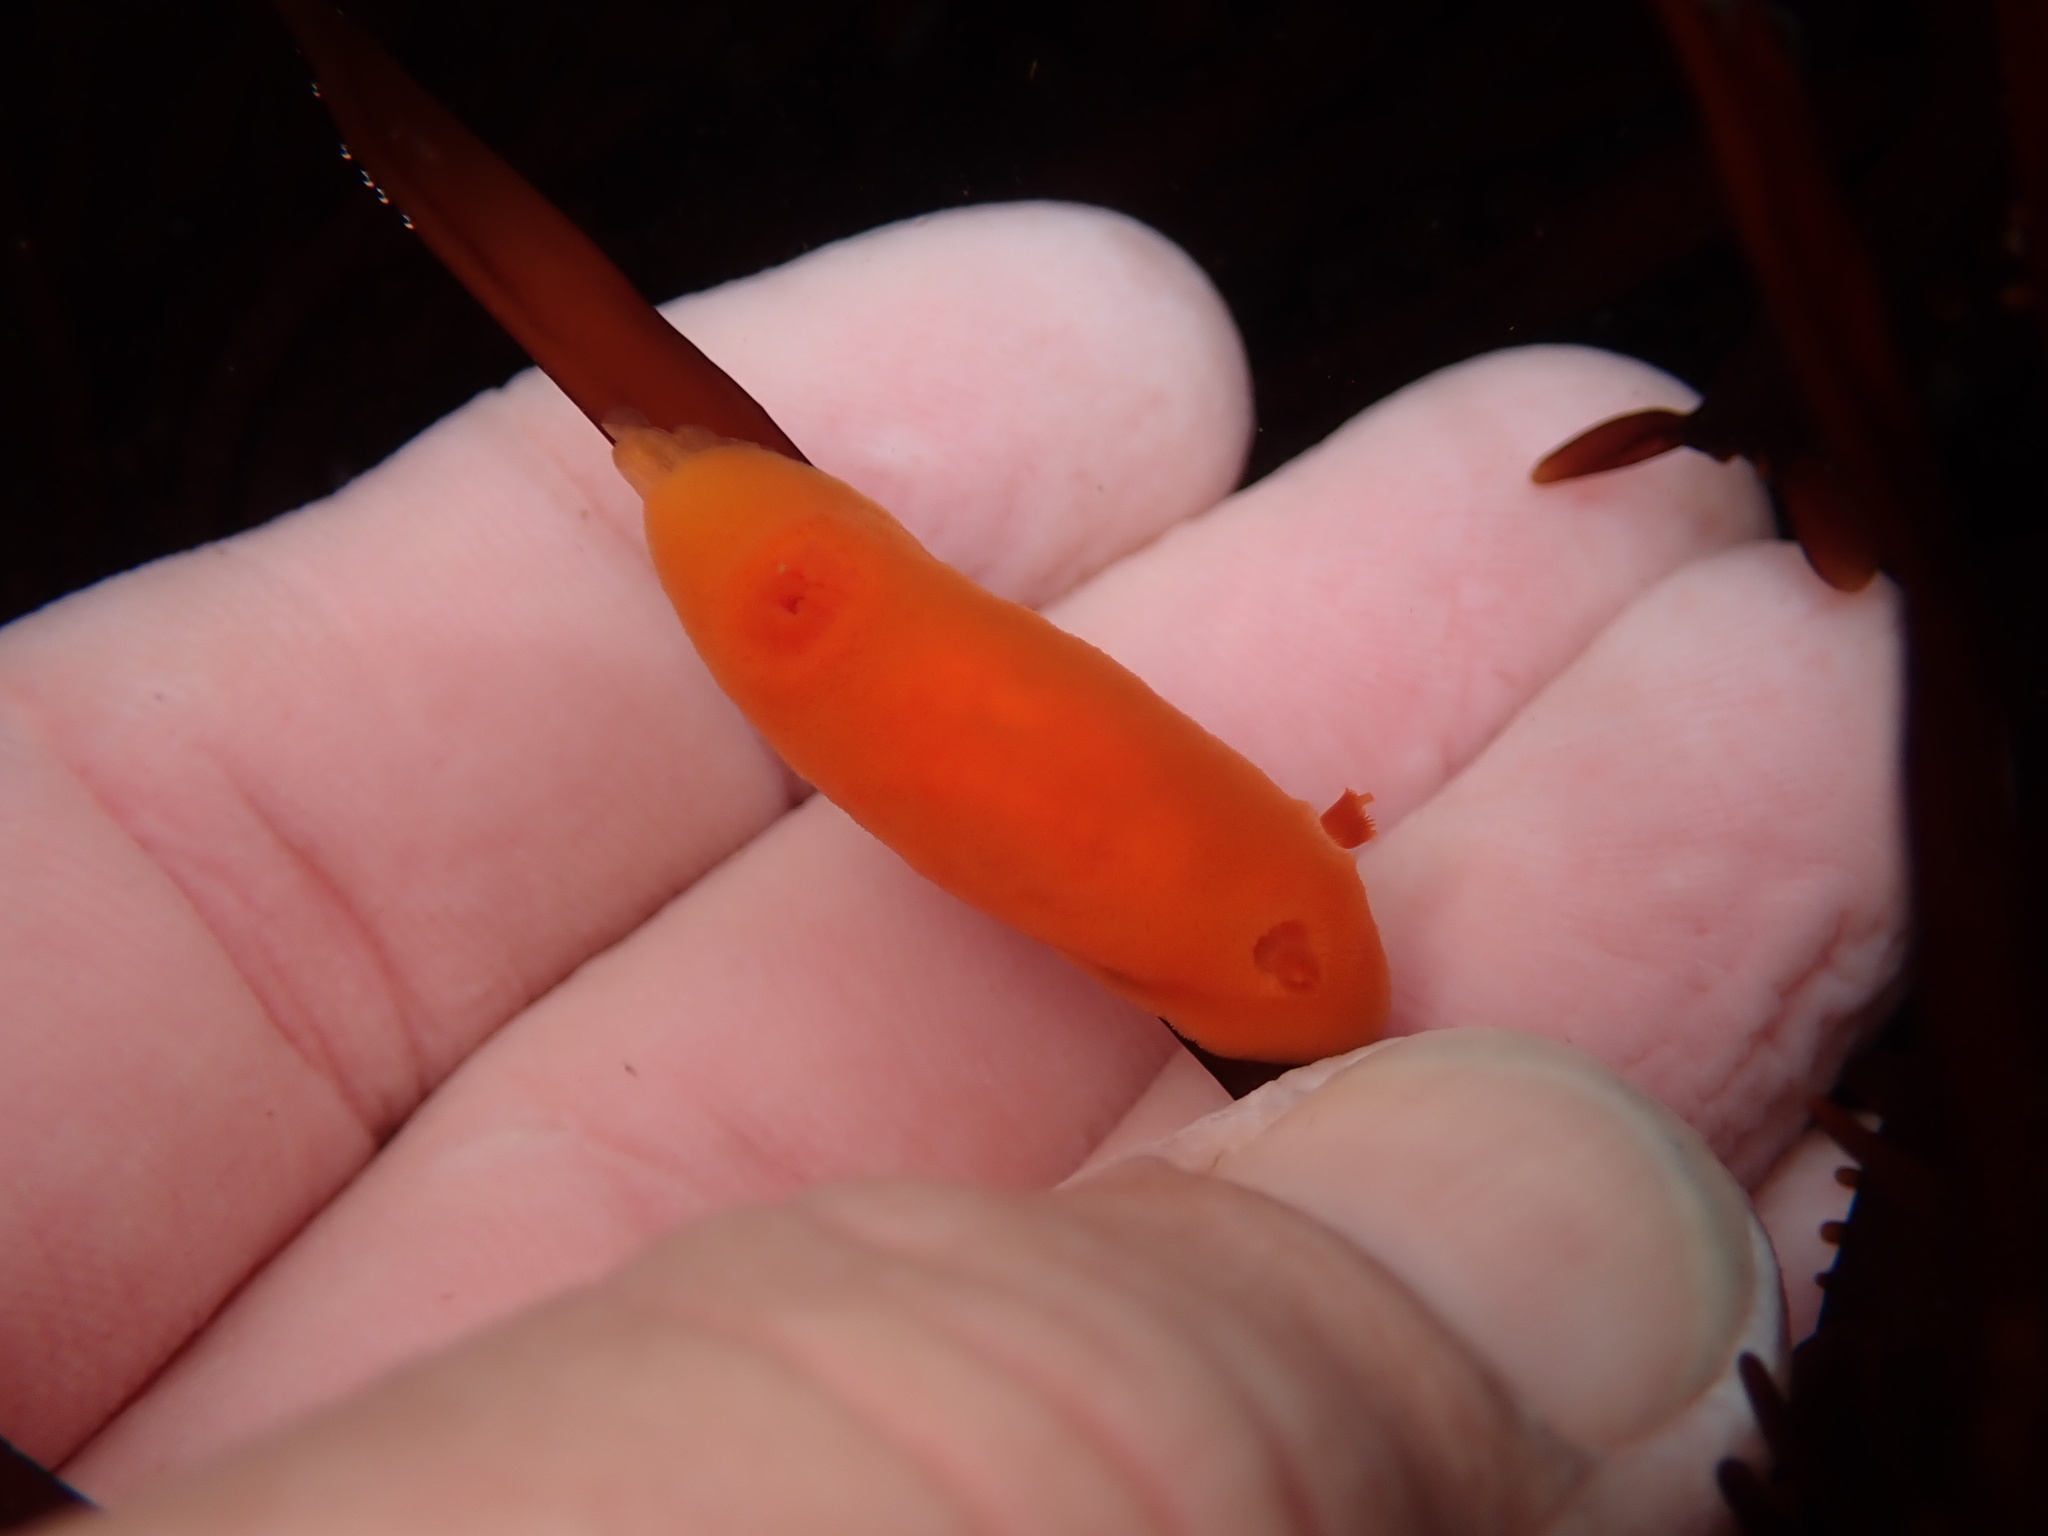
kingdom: Animalia
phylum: Mollusca
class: Gastropoda
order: Nudibranchia
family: Discodorididae
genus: Rostanga
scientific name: Rostanga pulchra
